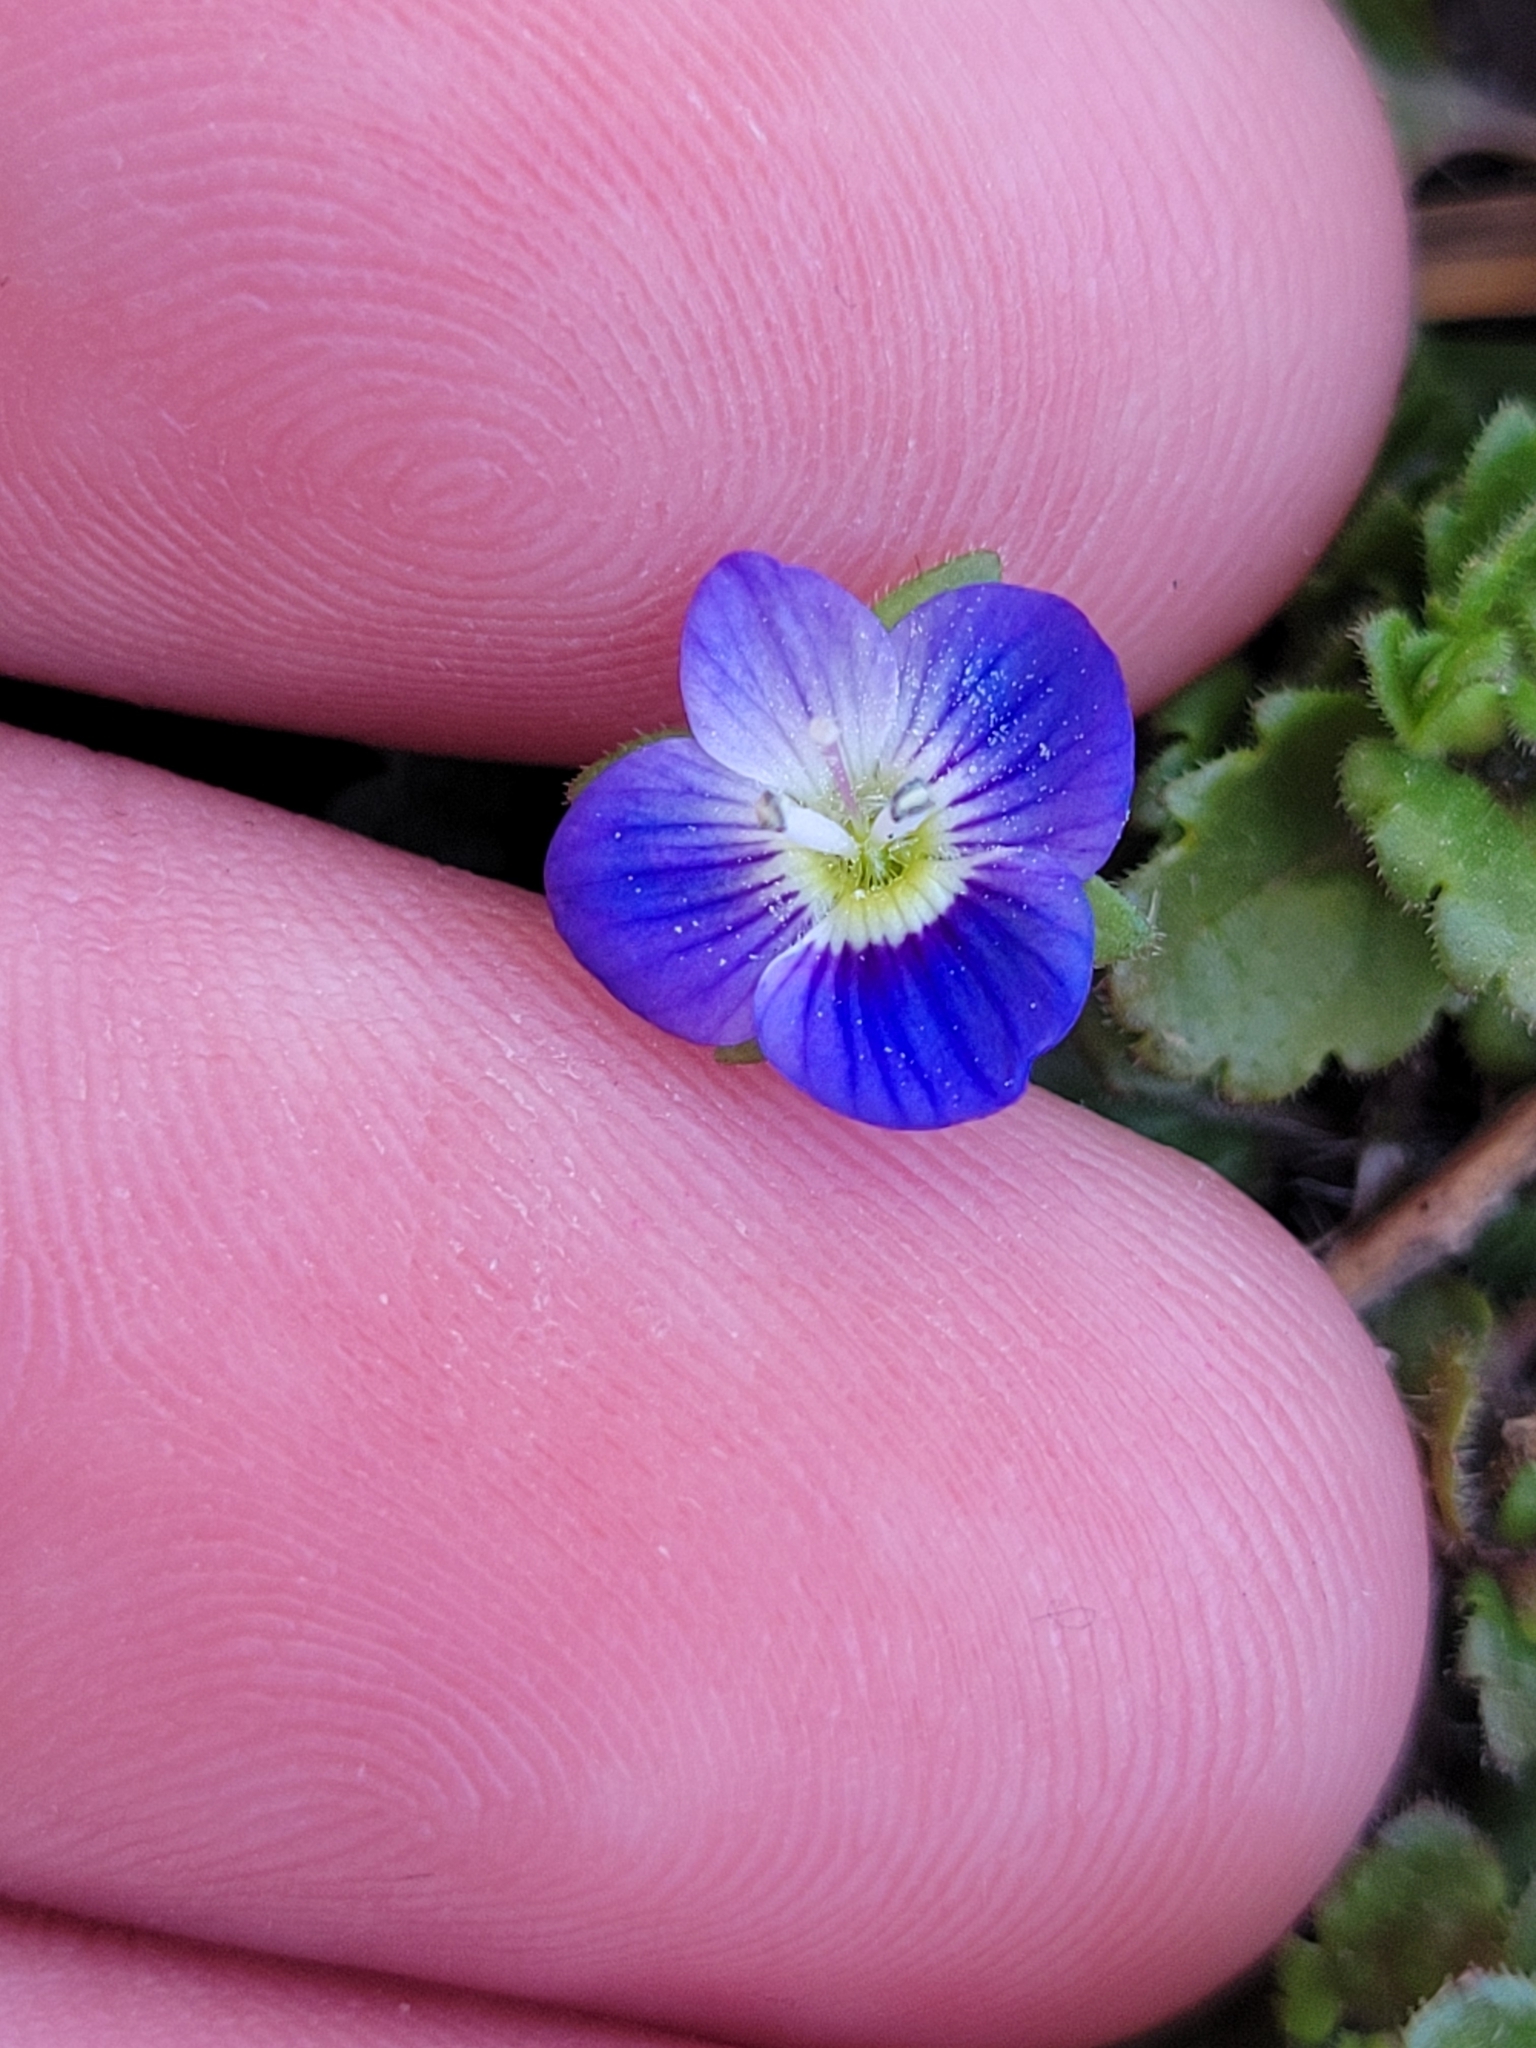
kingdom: Plantae
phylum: Tracheophyta
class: Magnoliopsida
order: Lamiales
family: Plantaginaceae
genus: Veronica
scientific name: Veronica persica
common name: Common field-speedwell
